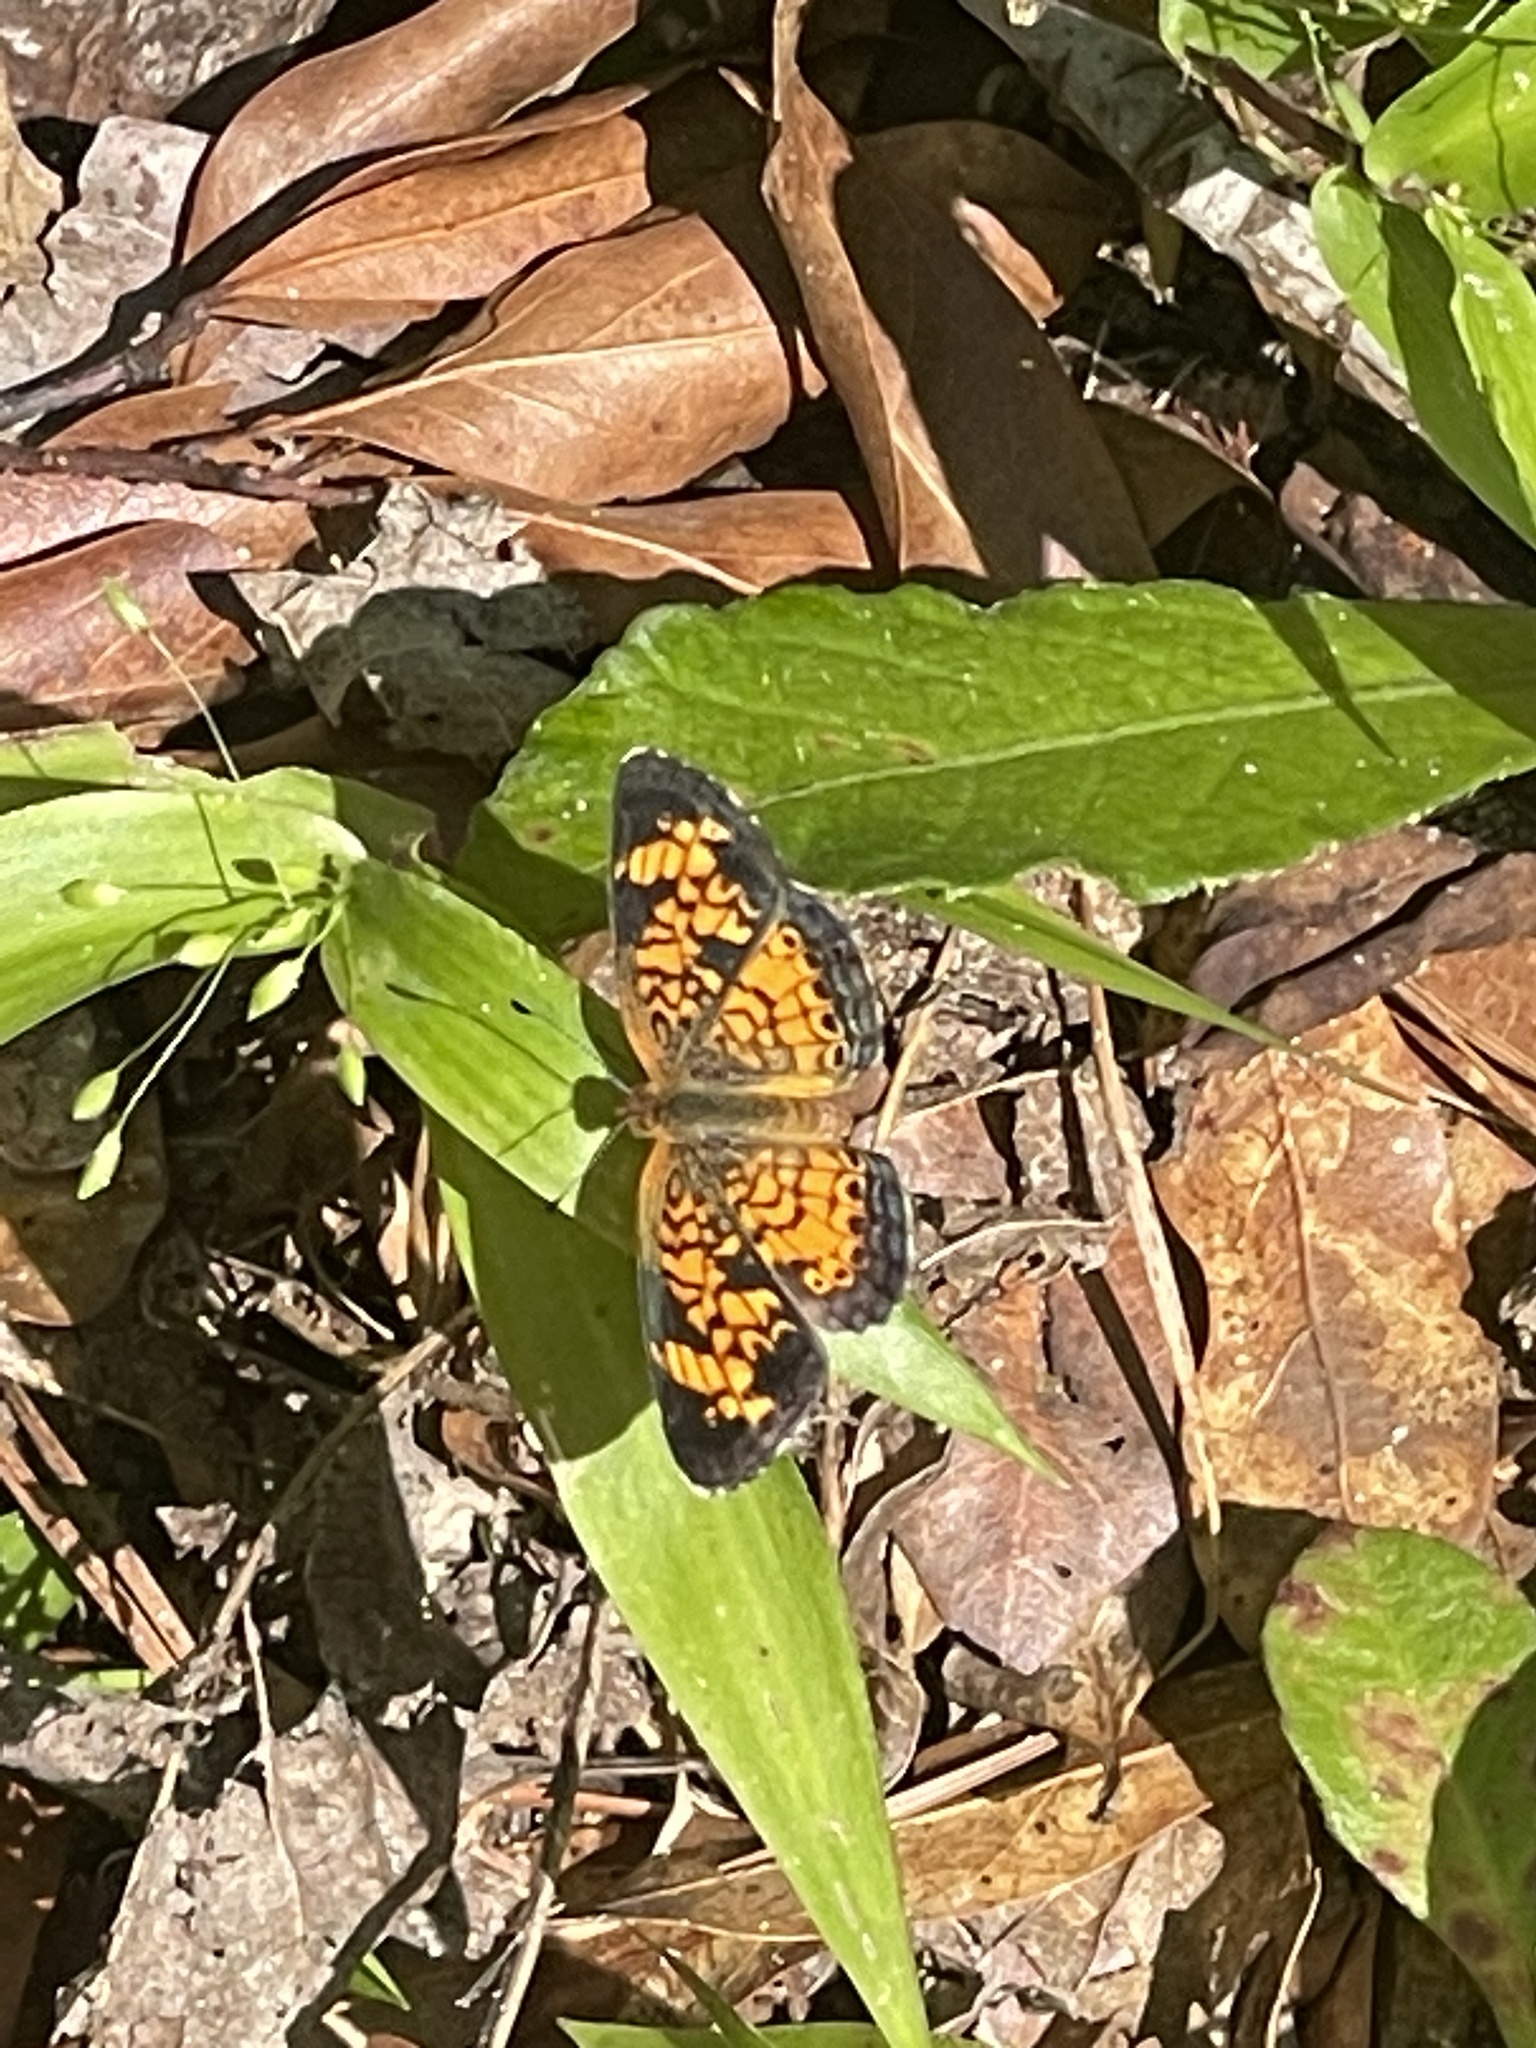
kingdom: Animalia
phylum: Arthropoda
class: Insecta
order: Lepidoptera
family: Nymphalidae
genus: Phyciodes
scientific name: Phyciodes tharos
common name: Pearl crescent
